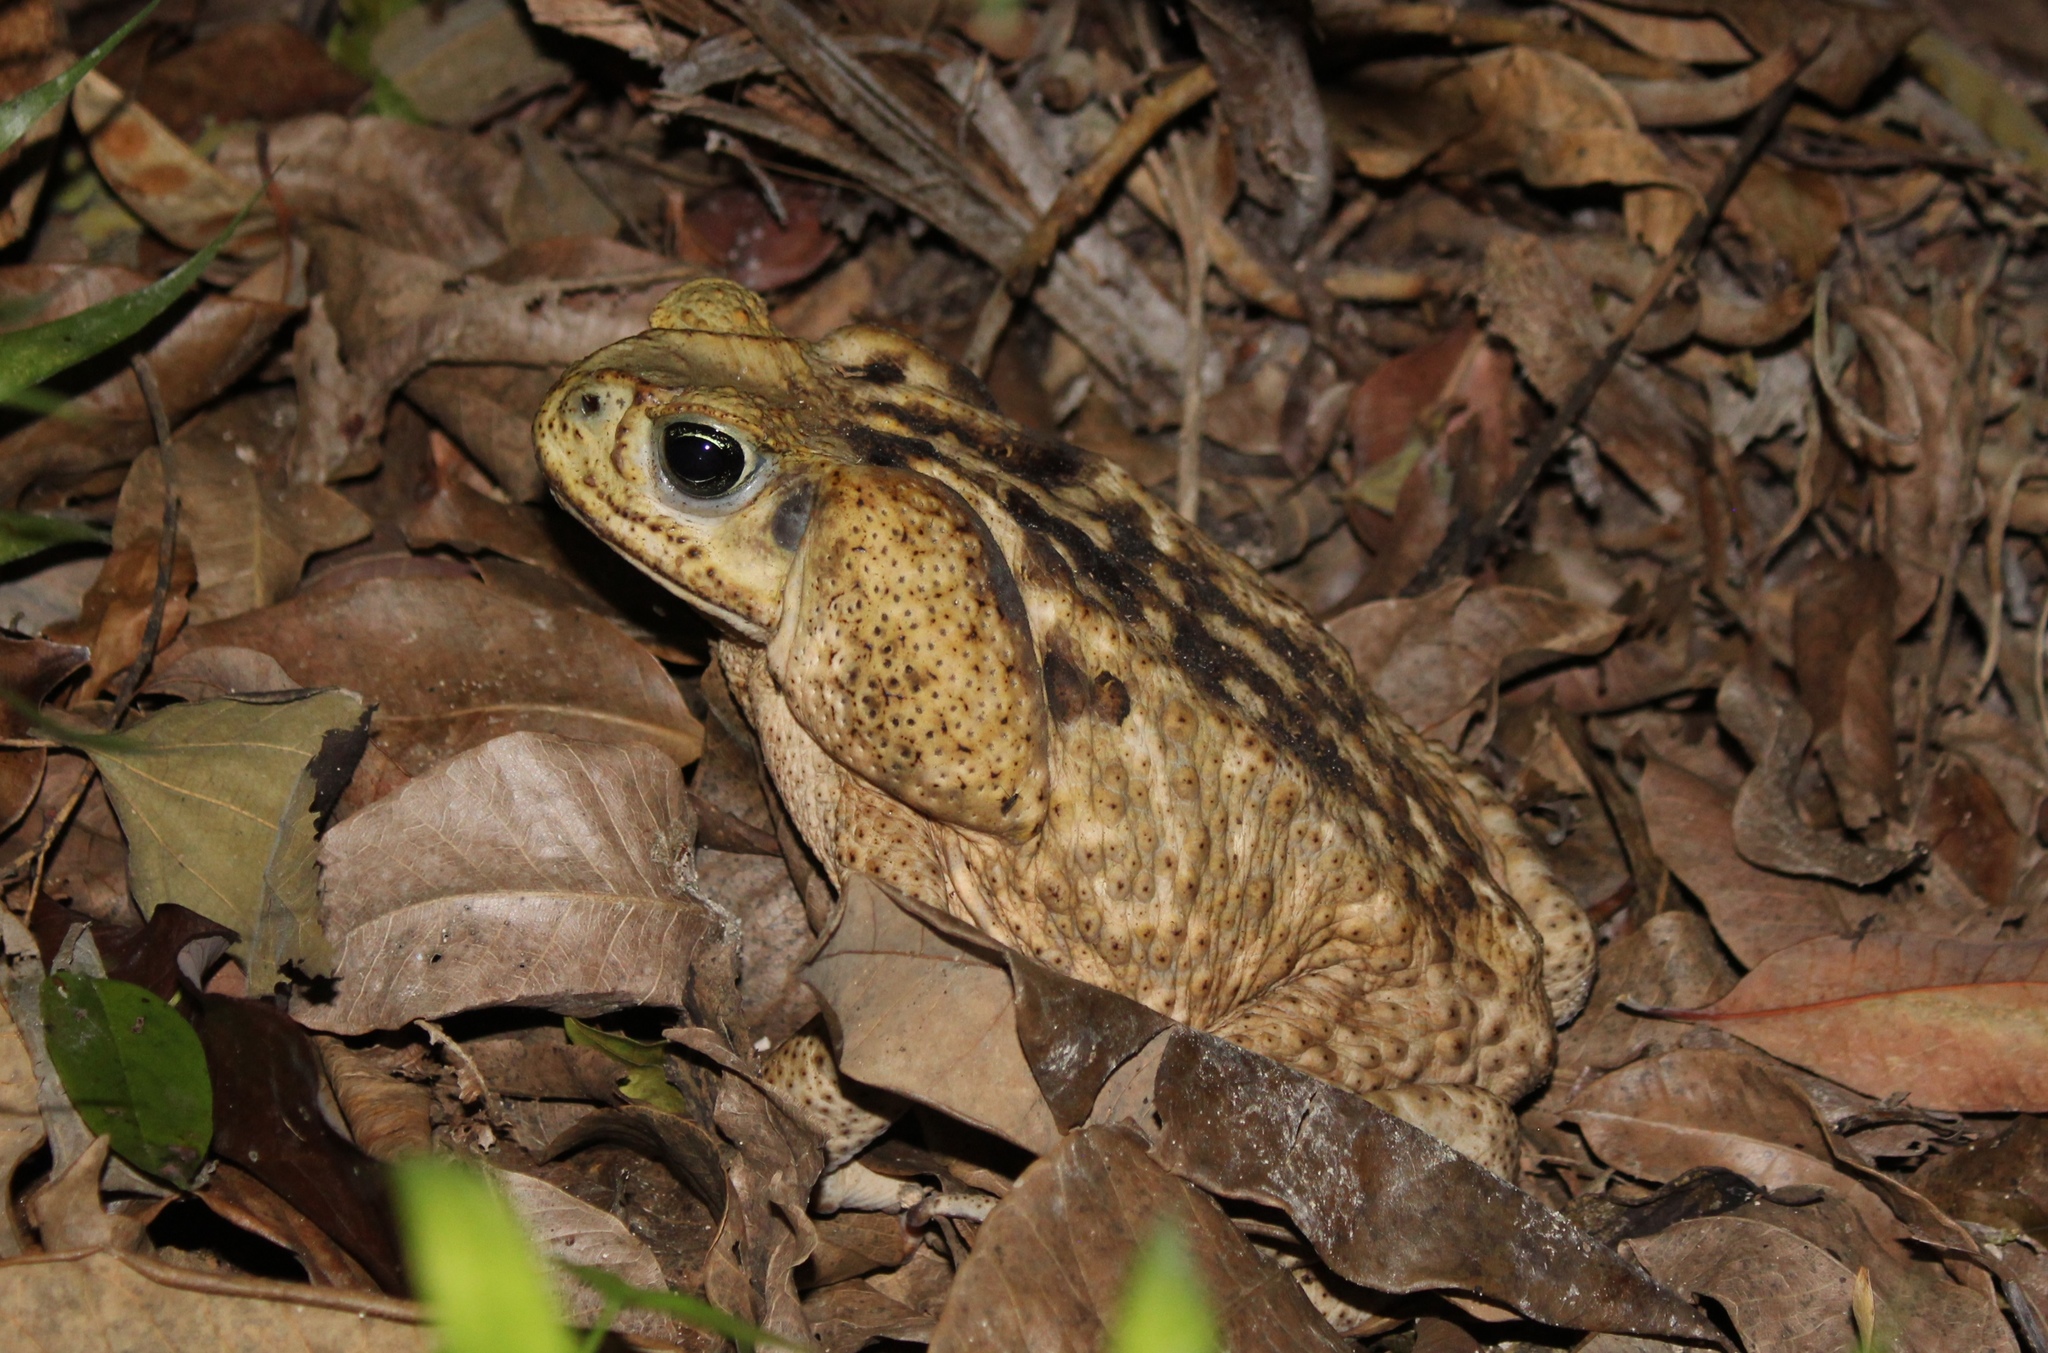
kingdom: Animalia
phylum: Chordata
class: Amphibia
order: Anura
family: Bufonidae
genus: Rhinella
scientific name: Rhinella horribilis
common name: Mesoamerican cane toad
